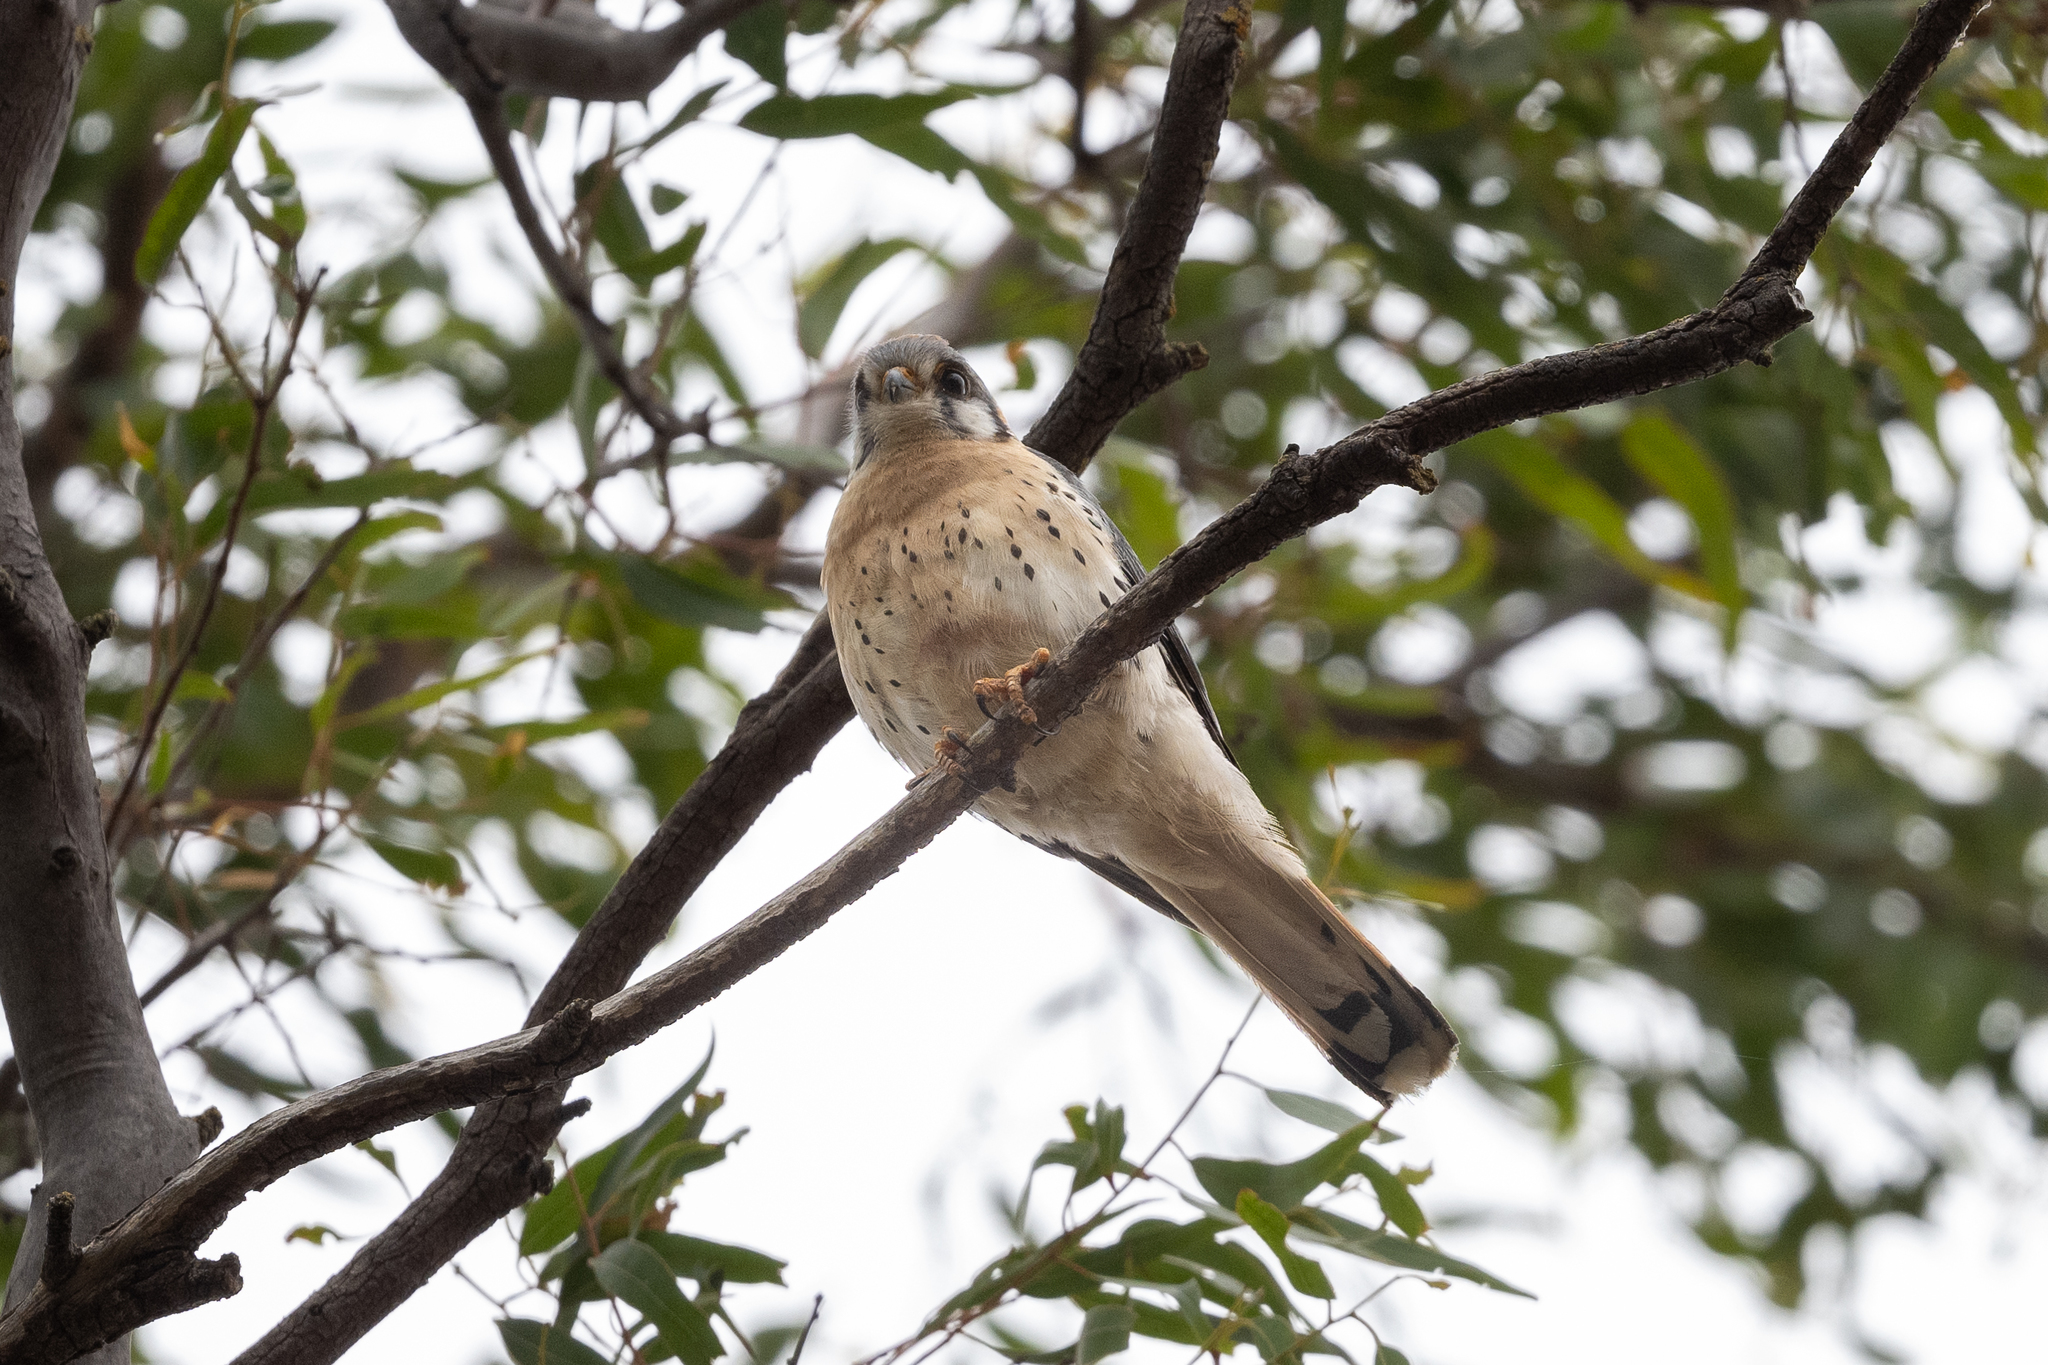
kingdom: Animalia
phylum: Chordata
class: Aves
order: Falconiformes
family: Falconidae
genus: Falco
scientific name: Falco sparverius
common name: American kestrel
